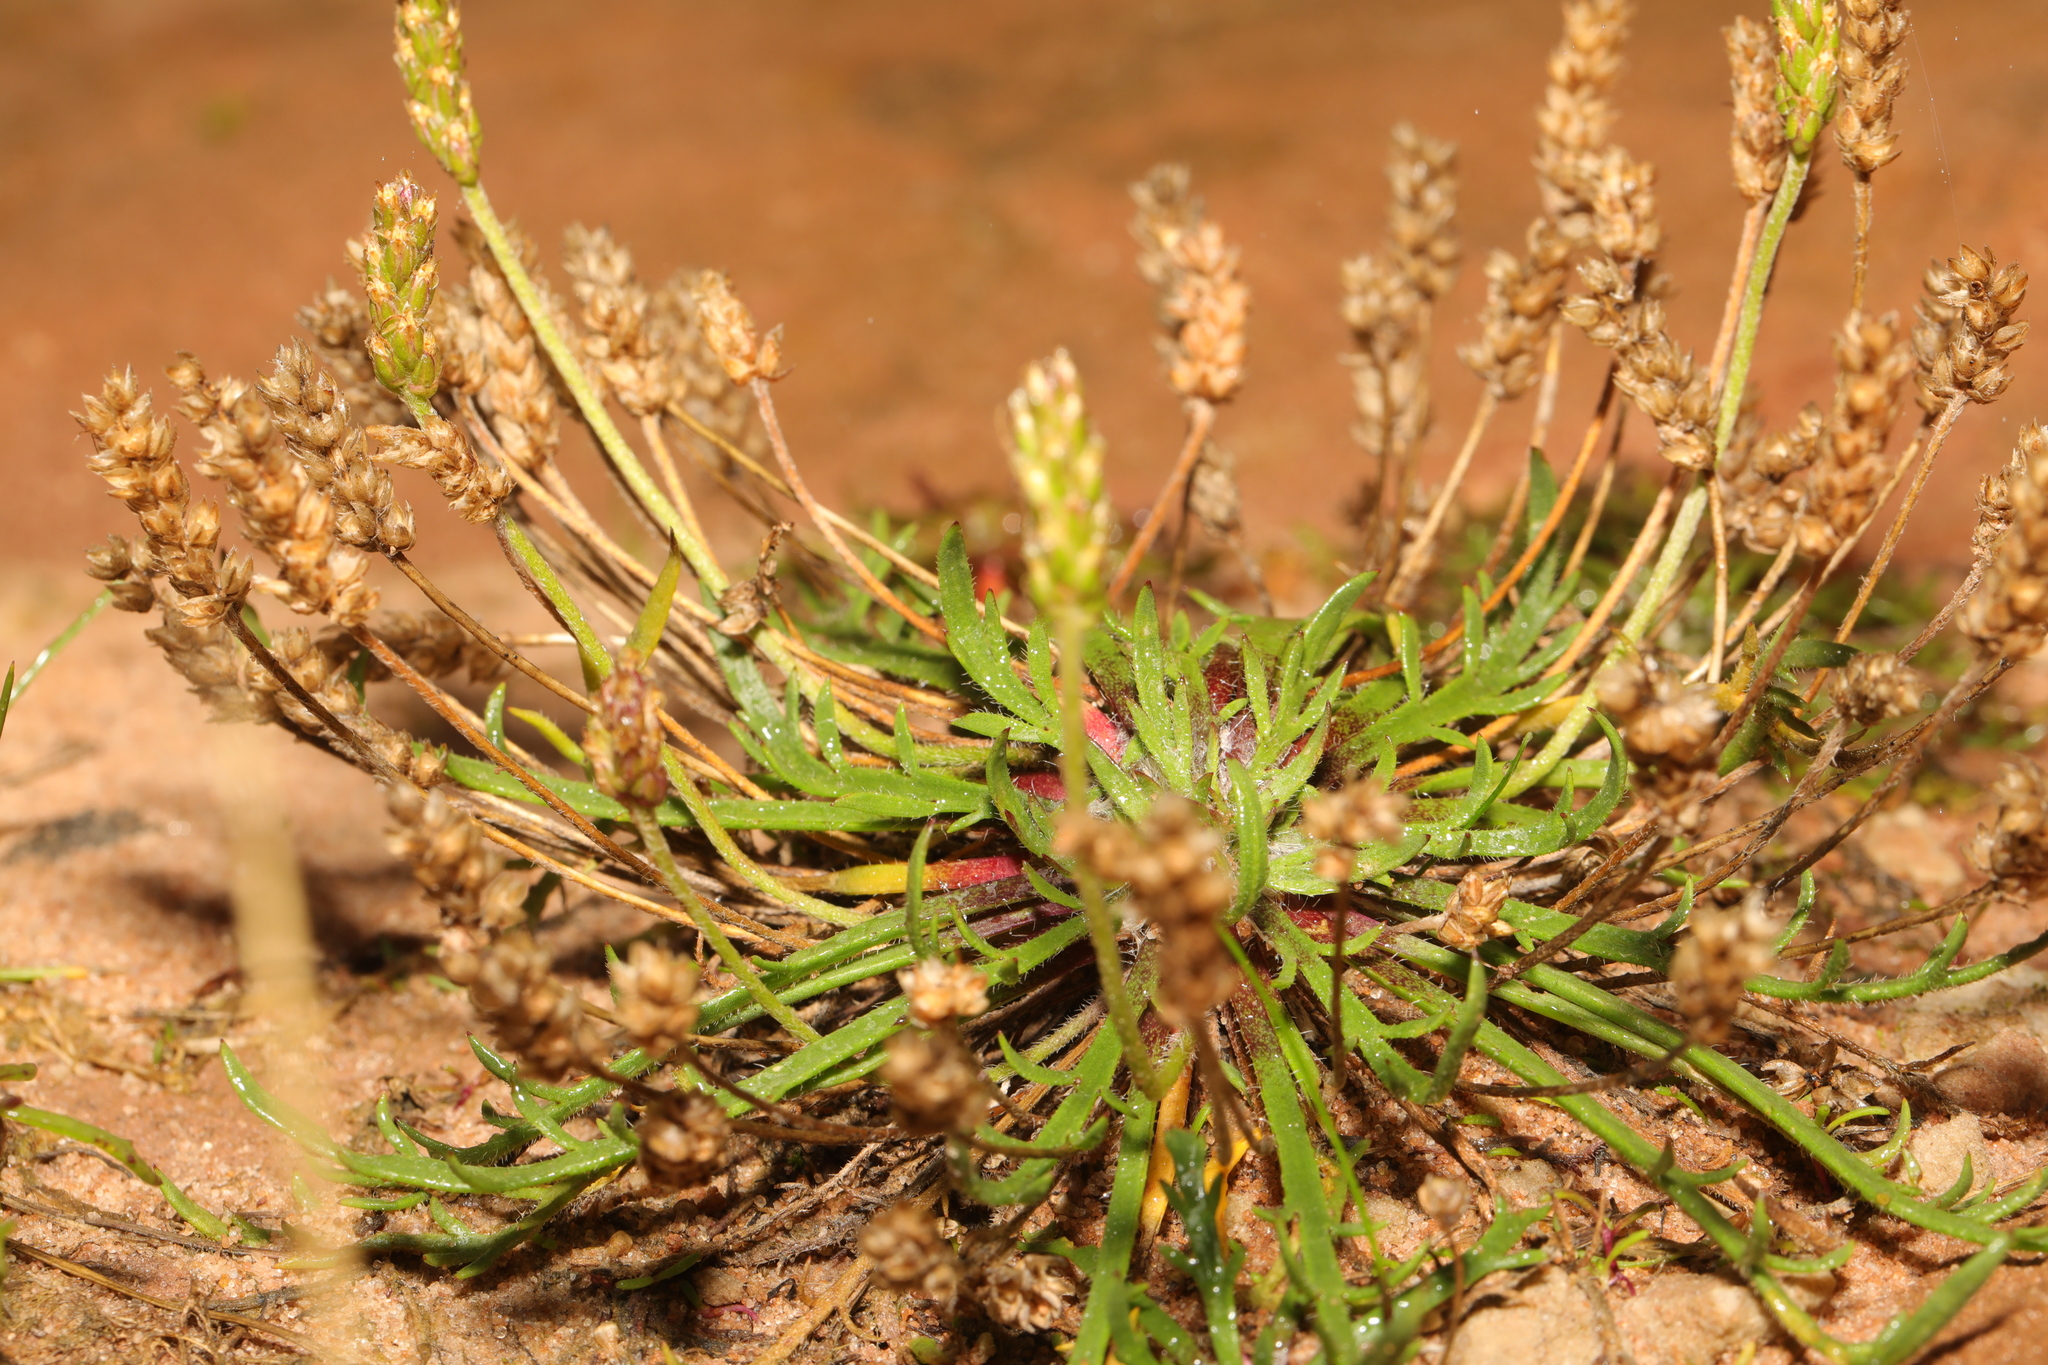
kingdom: Plantae
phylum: Tracheophyta
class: Magnoliopsida
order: Lamiales
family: Plantaginaceae
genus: Plantago
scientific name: Plantago coronopus
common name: Buck's-horn plantain
